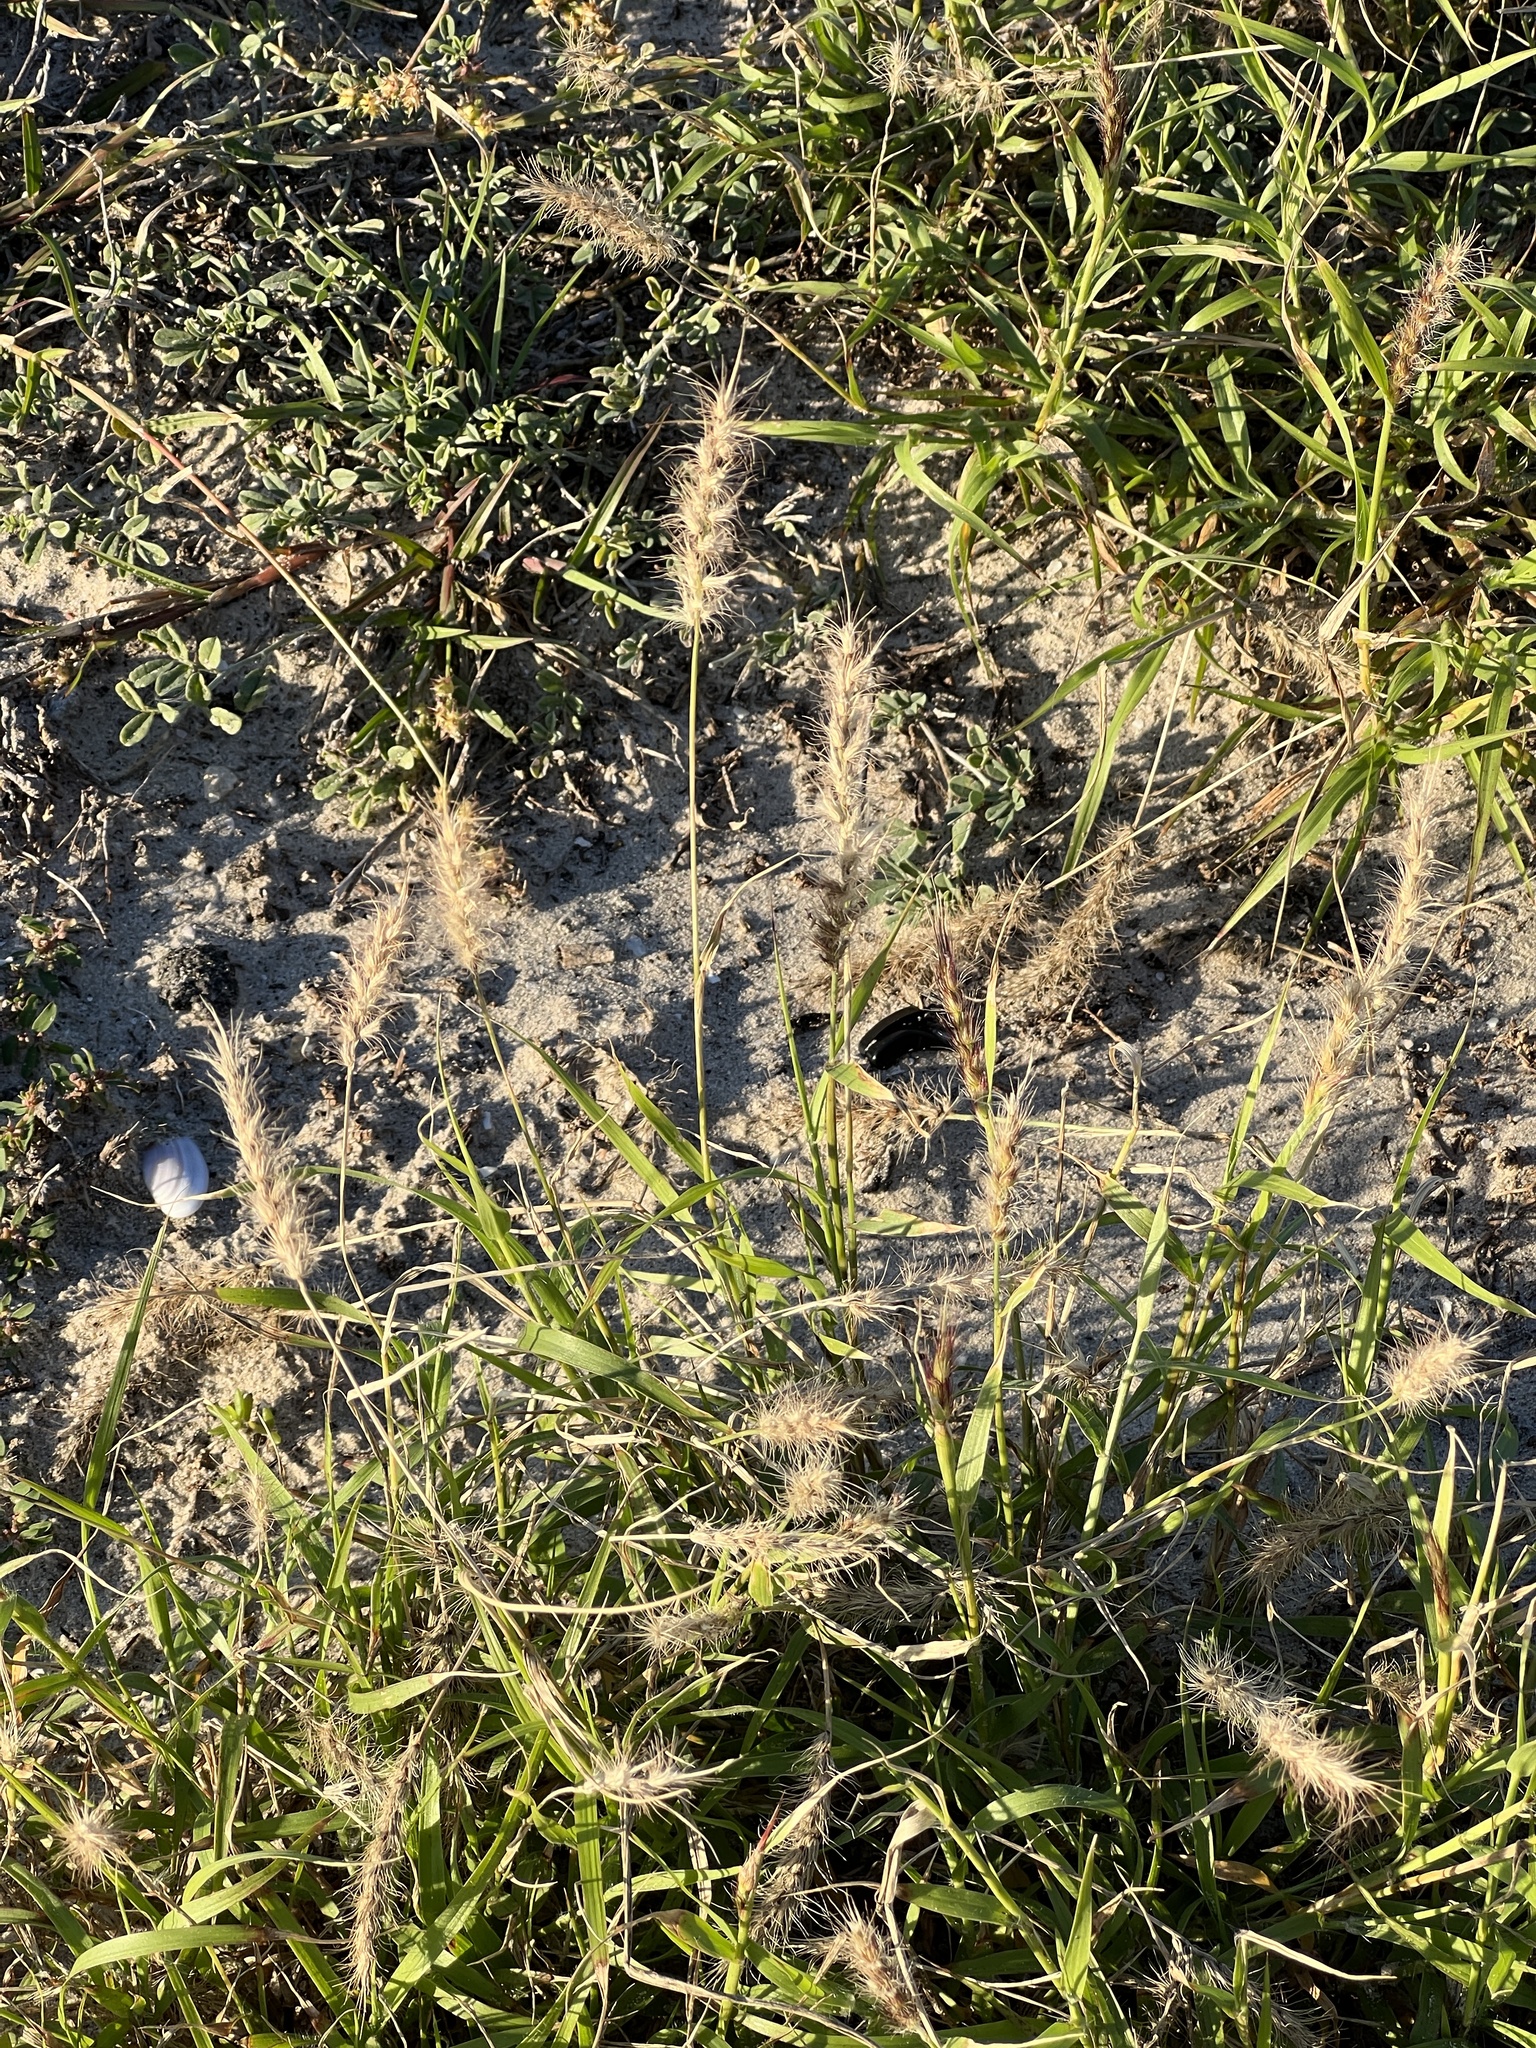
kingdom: Plantae
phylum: Tracheophyta
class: Liliopsida
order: Poales
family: Poaceae
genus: Cenchrus
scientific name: Cenchrus ciliaris
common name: Buffelgrass
